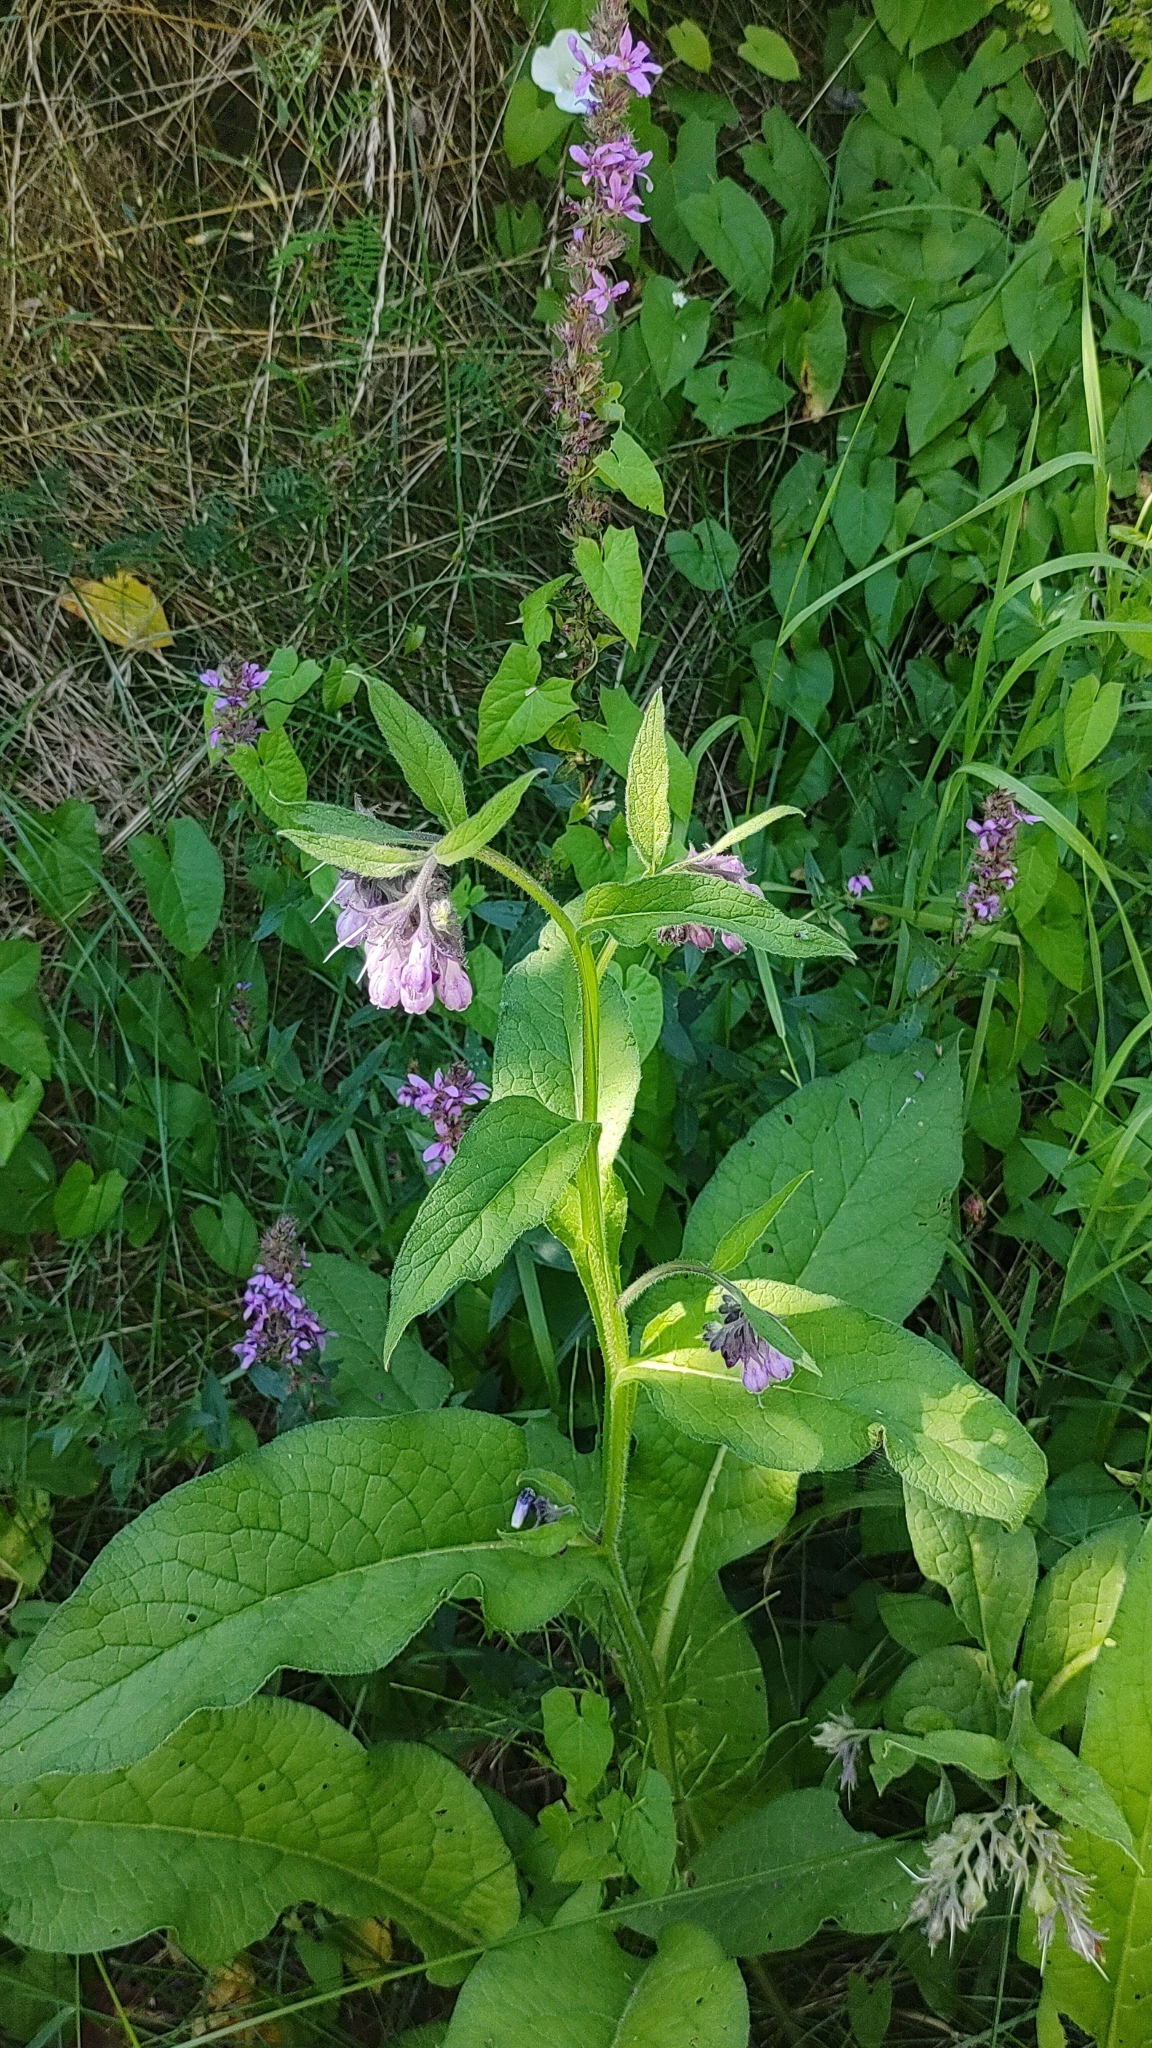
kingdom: Plantae
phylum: Tracheophyta
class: Magnoliopsida
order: Boraginales
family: Boraginaceae
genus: Symphytum
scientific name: Symphytum officinale
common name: Common comfrey
